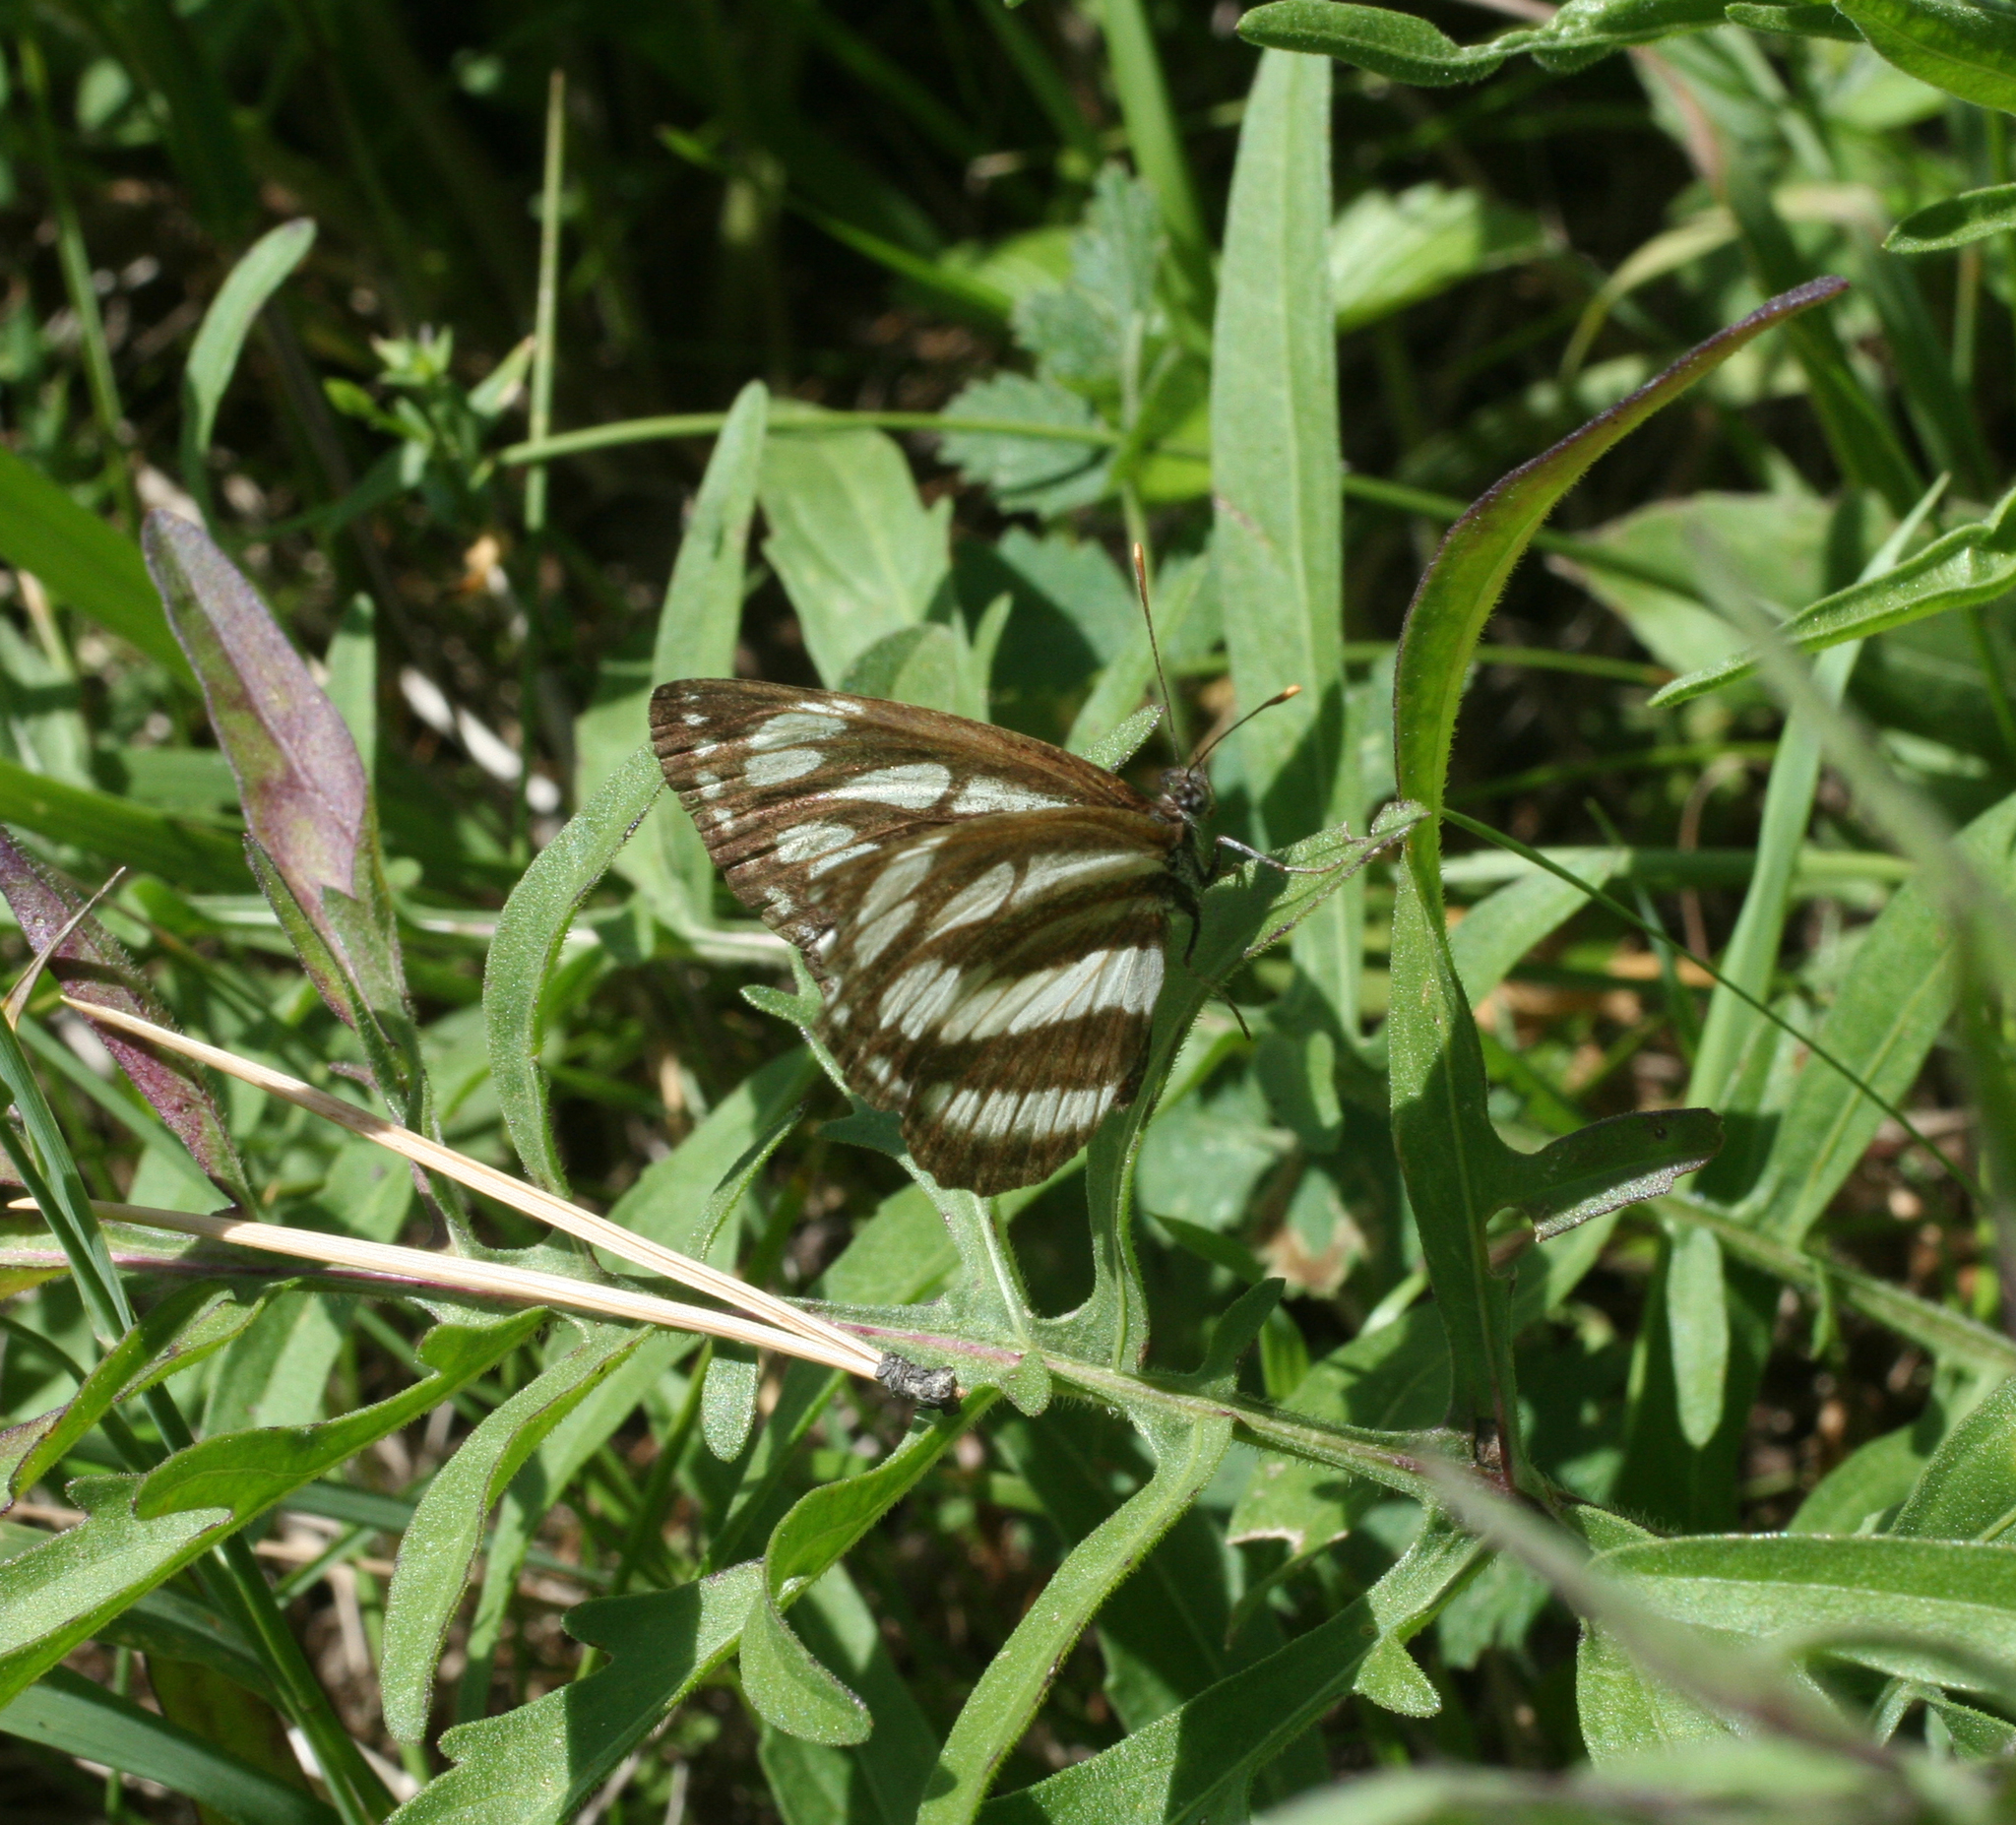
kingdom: Animalia
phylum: Arthropoda
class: Insecta
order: Lepidoptera
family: Nymphalidae
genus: Neptis
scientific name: Neptis sappho
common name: Common glider
